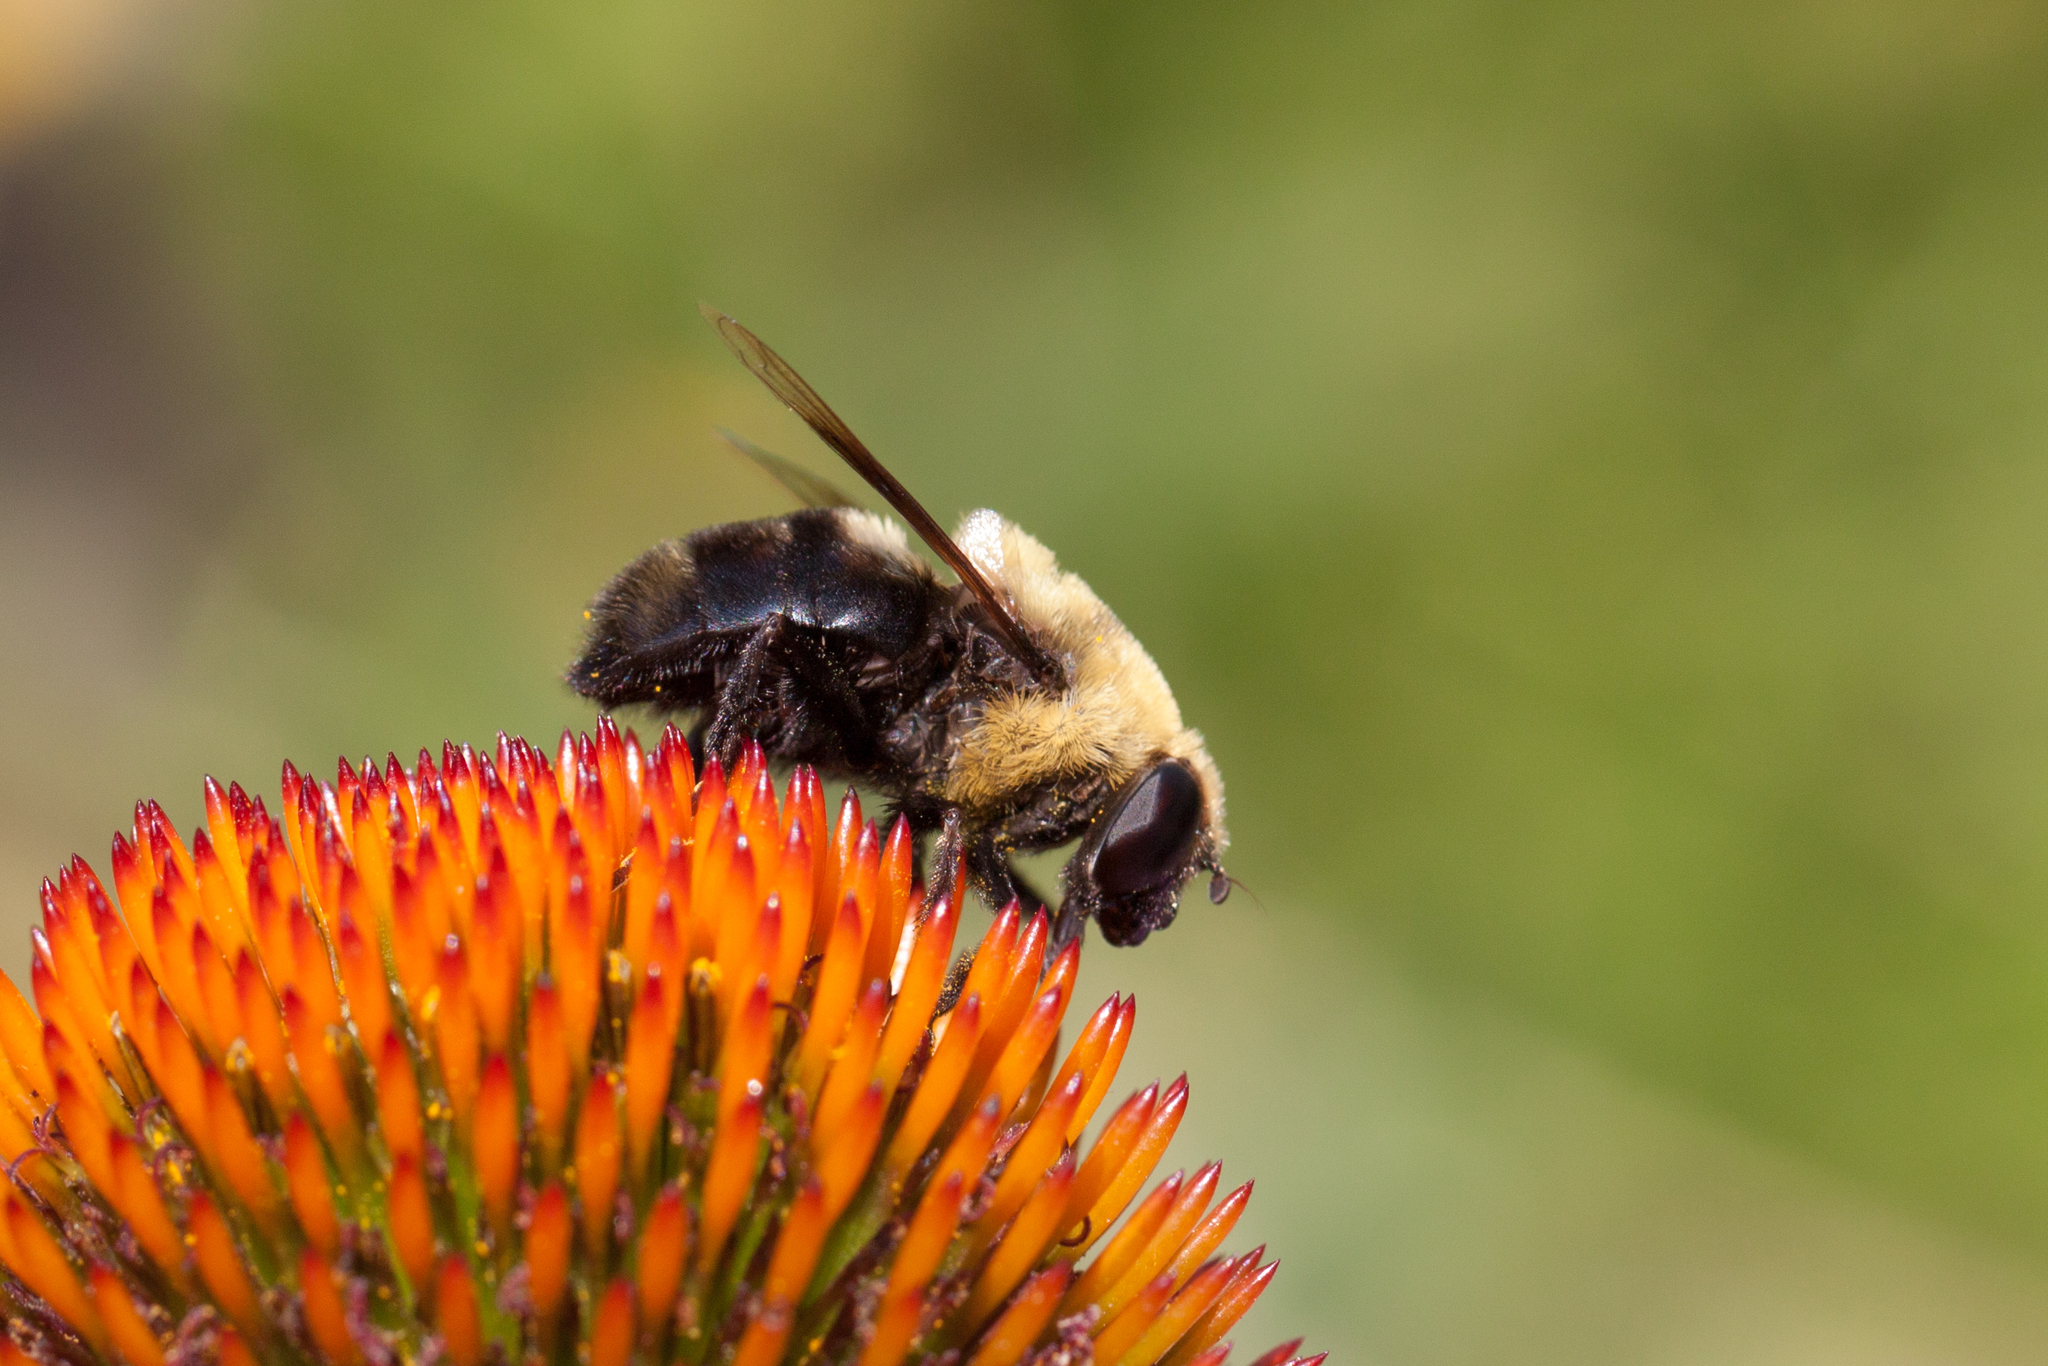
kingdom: Animalia
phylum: Arthropoda
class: Insecta
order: Diptera
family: Syrphidae
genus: Eristalis
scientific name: Eristalis flavipes
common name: Orange-legged drone fly
